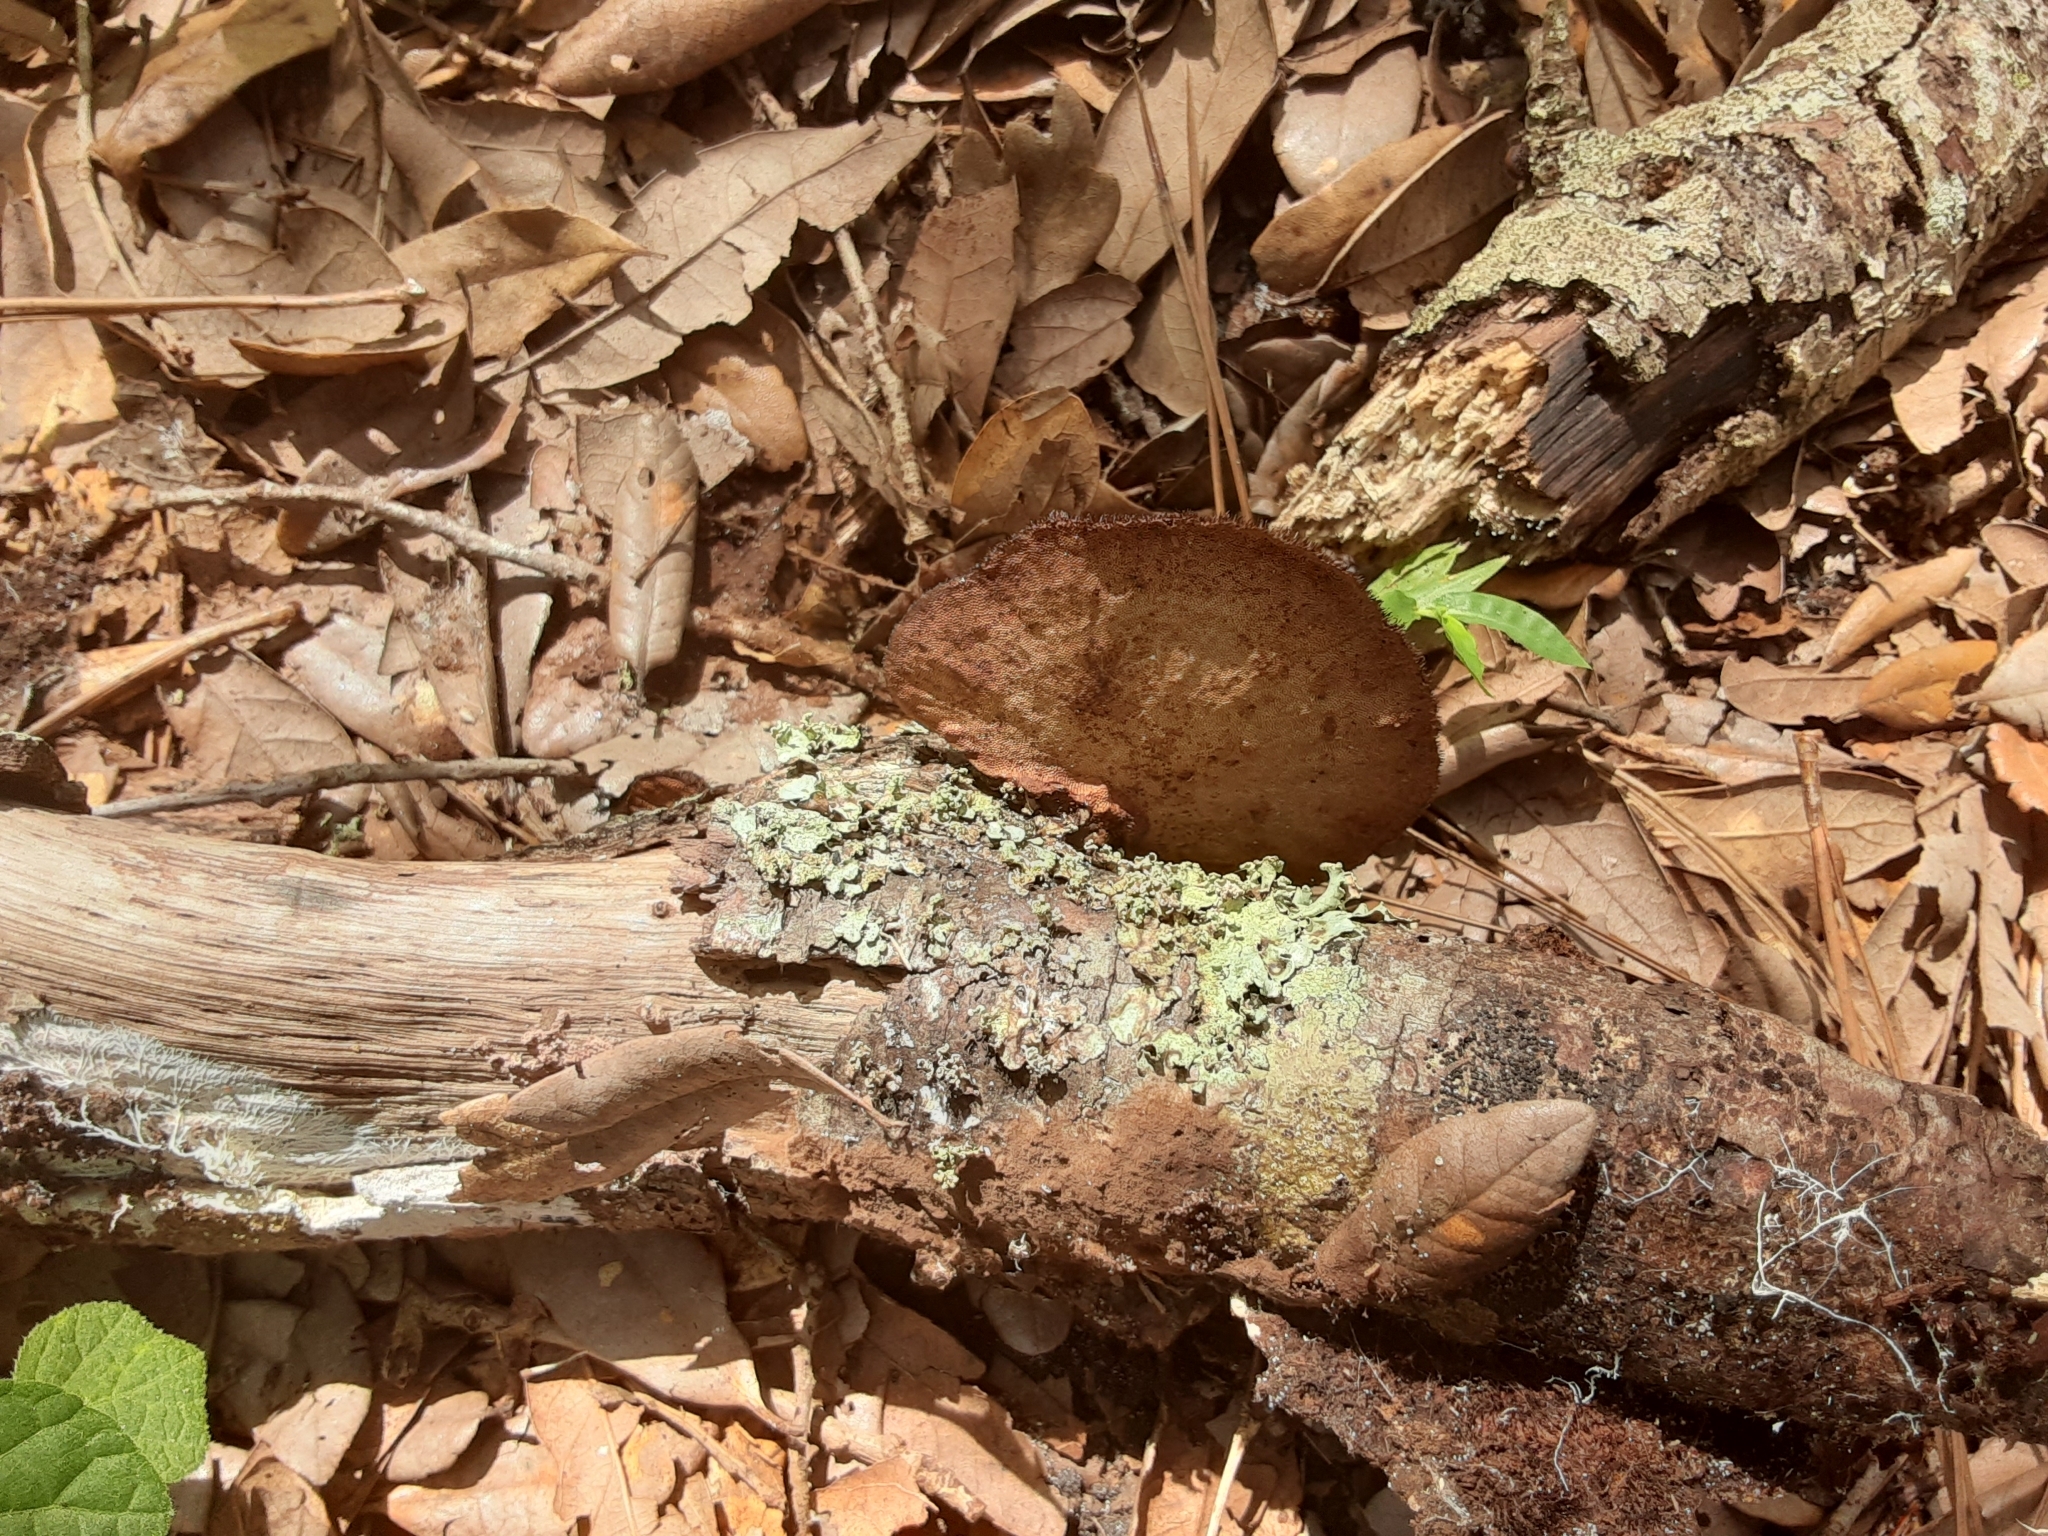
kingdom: Fungi
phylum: Basidiomycota
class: Agaricomycetes
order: Polyporales
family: Cerrenaceae
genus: Cerrena
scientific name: Cerrena hydnoides
